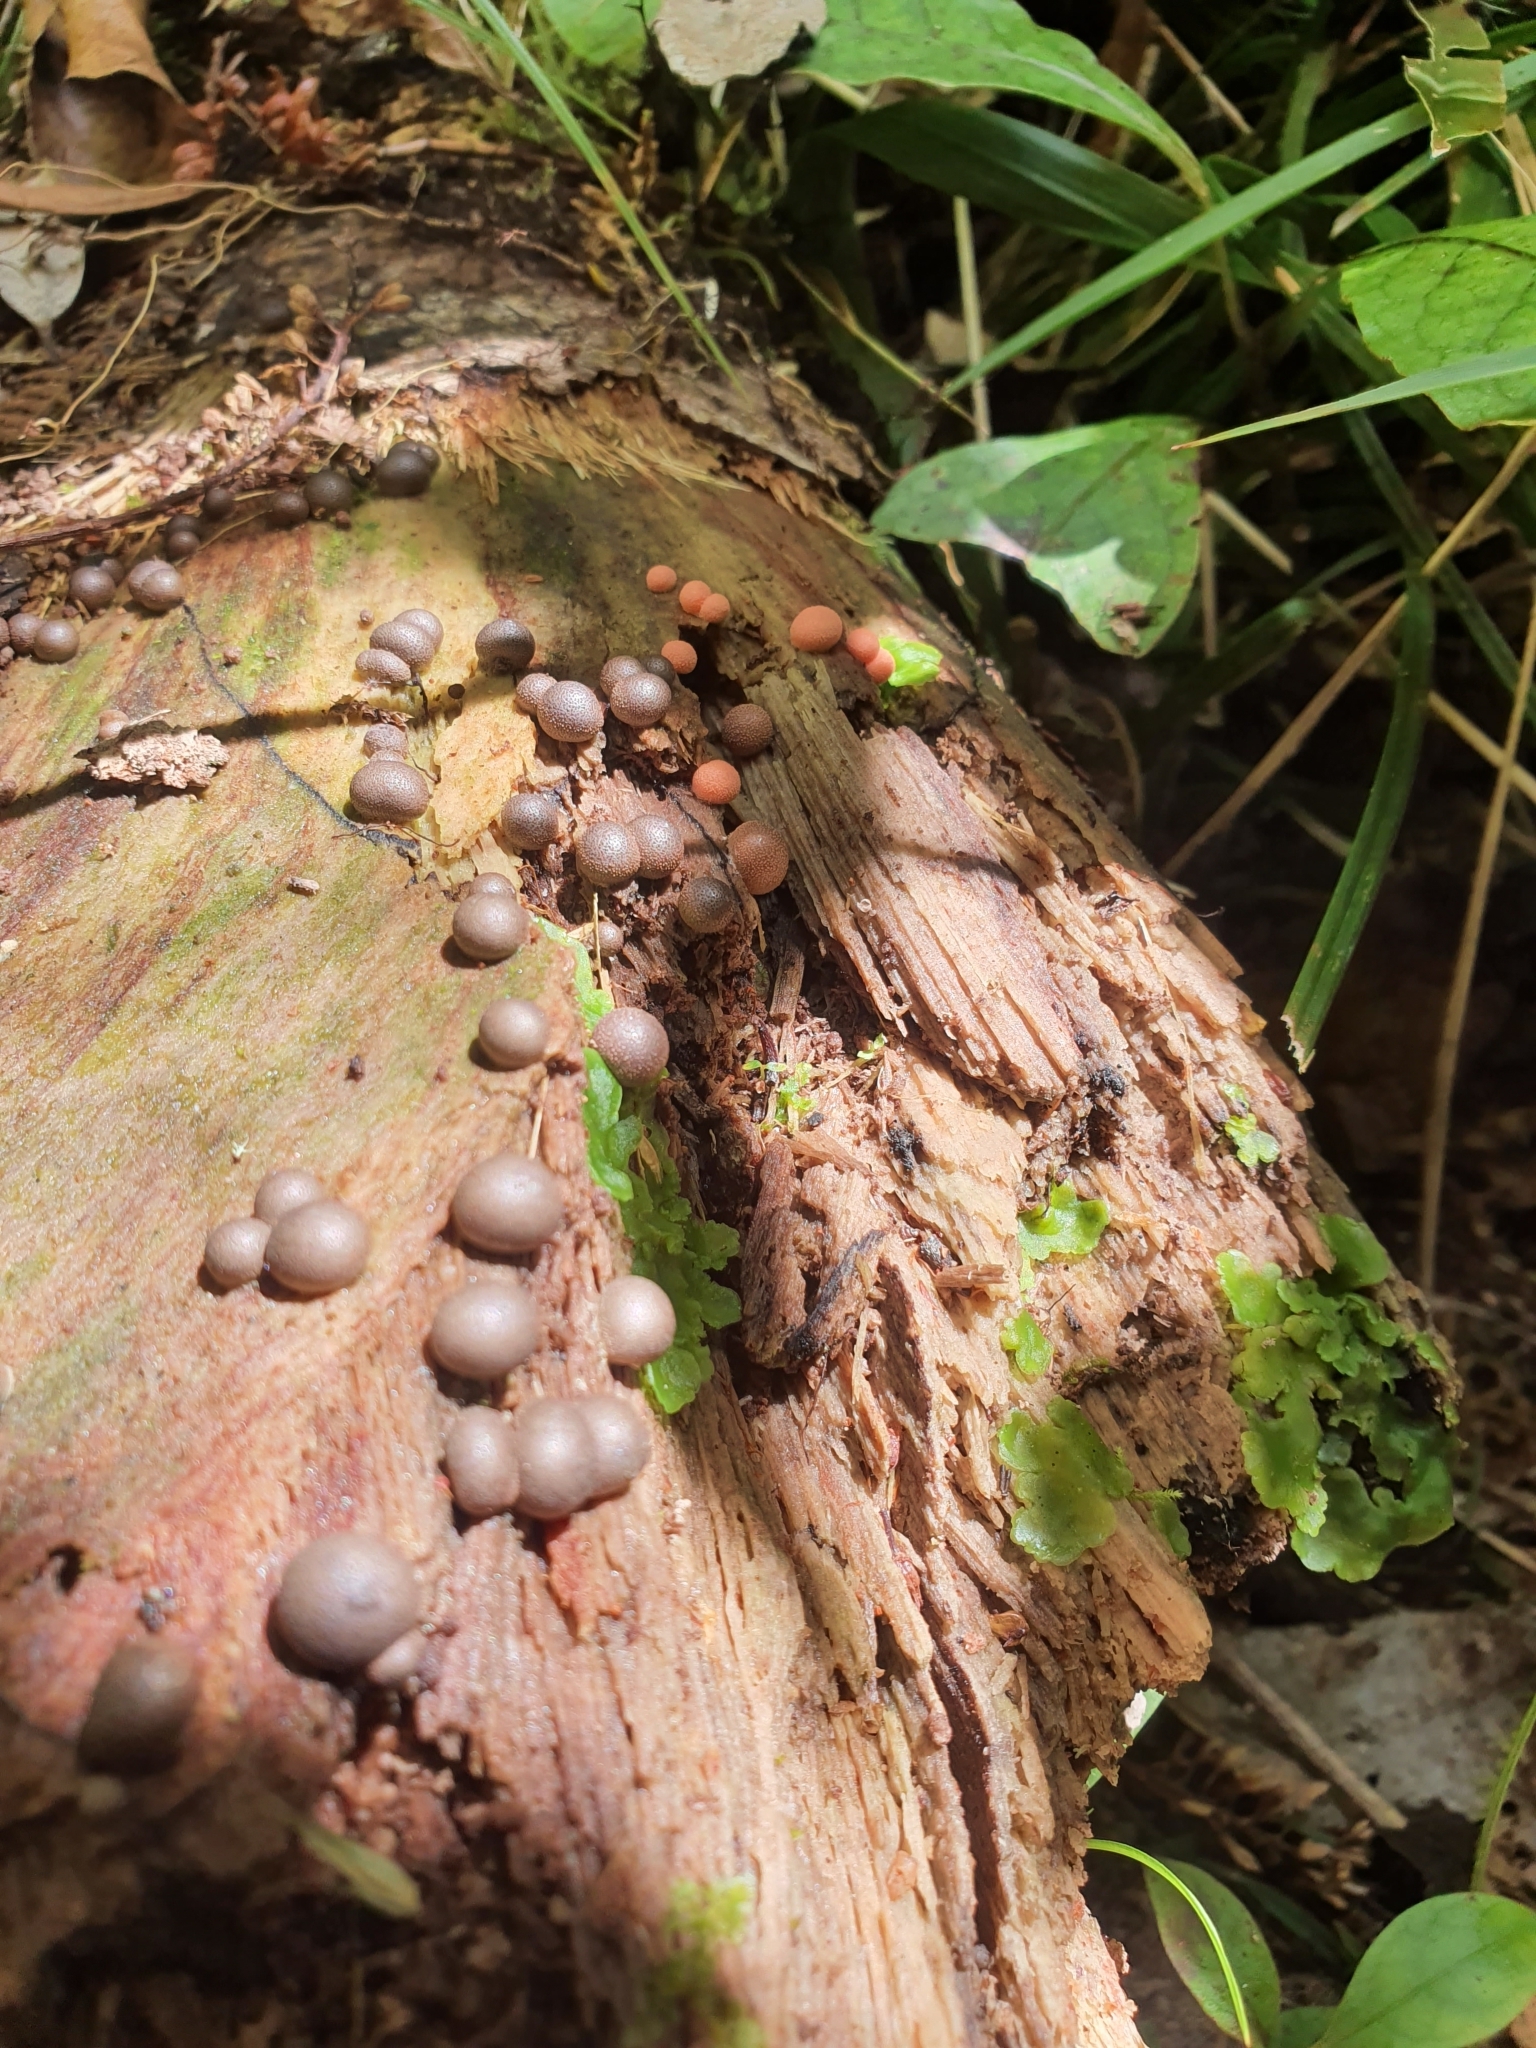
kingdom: Protozoa
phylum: Mycetozoa
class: Myxomycetes
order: Cribrariales
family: Tubiferaceae
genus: Lycogala
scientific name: Lycogala epidendrum
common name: Wolf's milk
